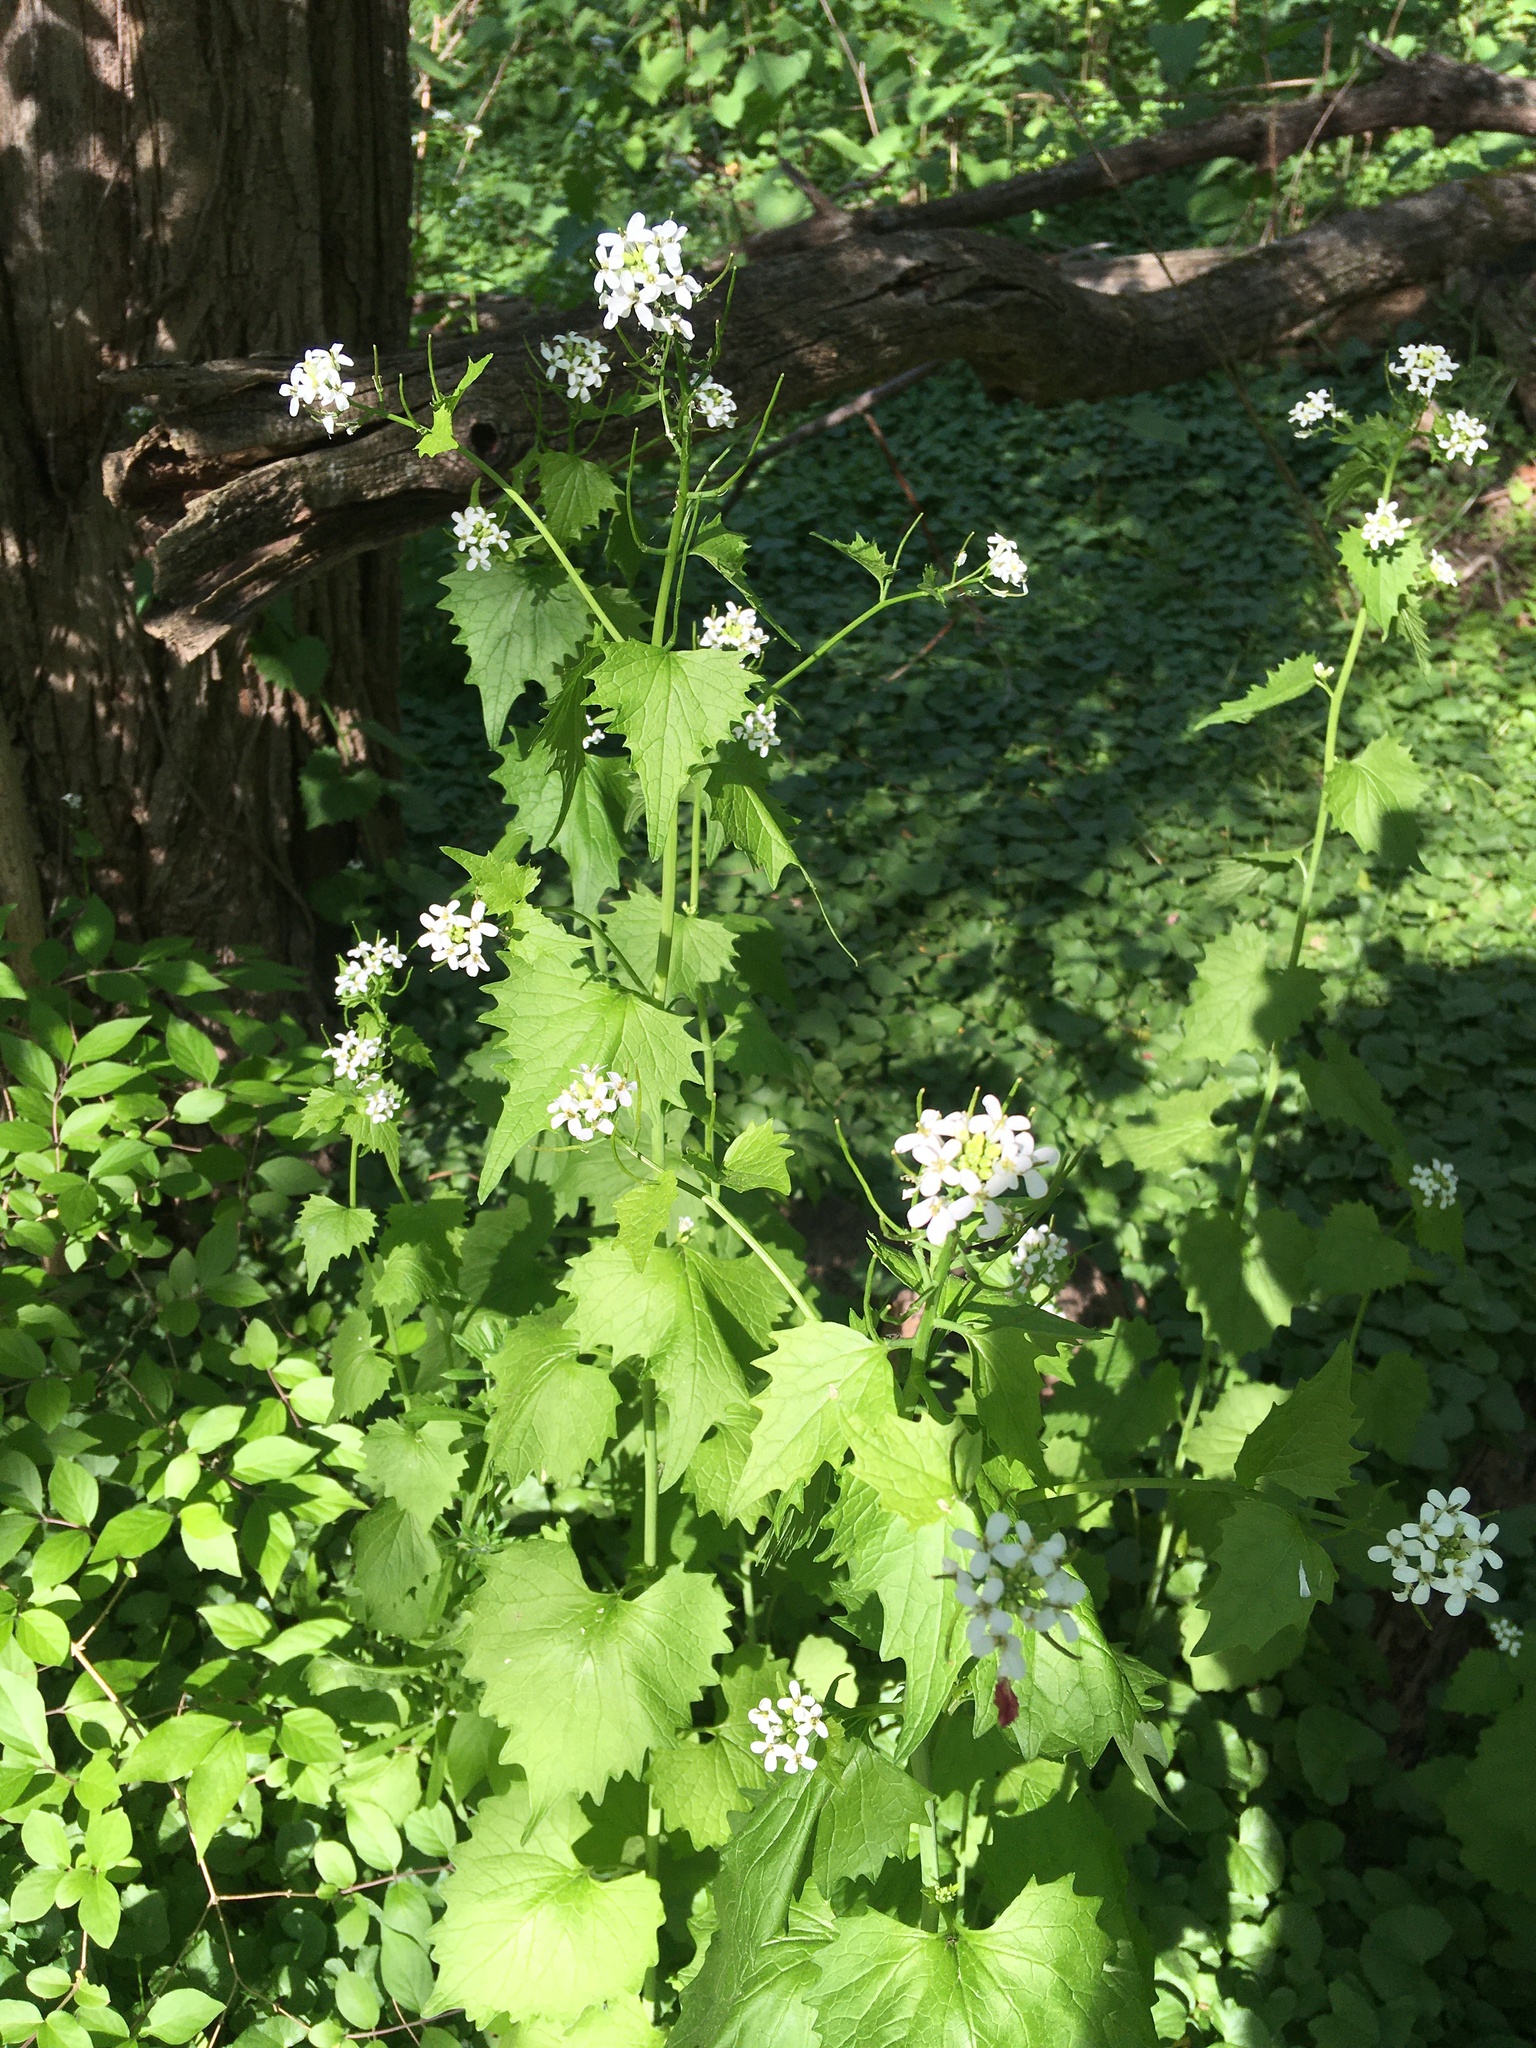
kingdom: Plantae
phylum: Tracheophyta
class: Magnoliopsida
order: Brassicales
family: Brassicaceae
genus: Alliaria
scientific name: Alliaria petiolata
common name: Garlic mustard
